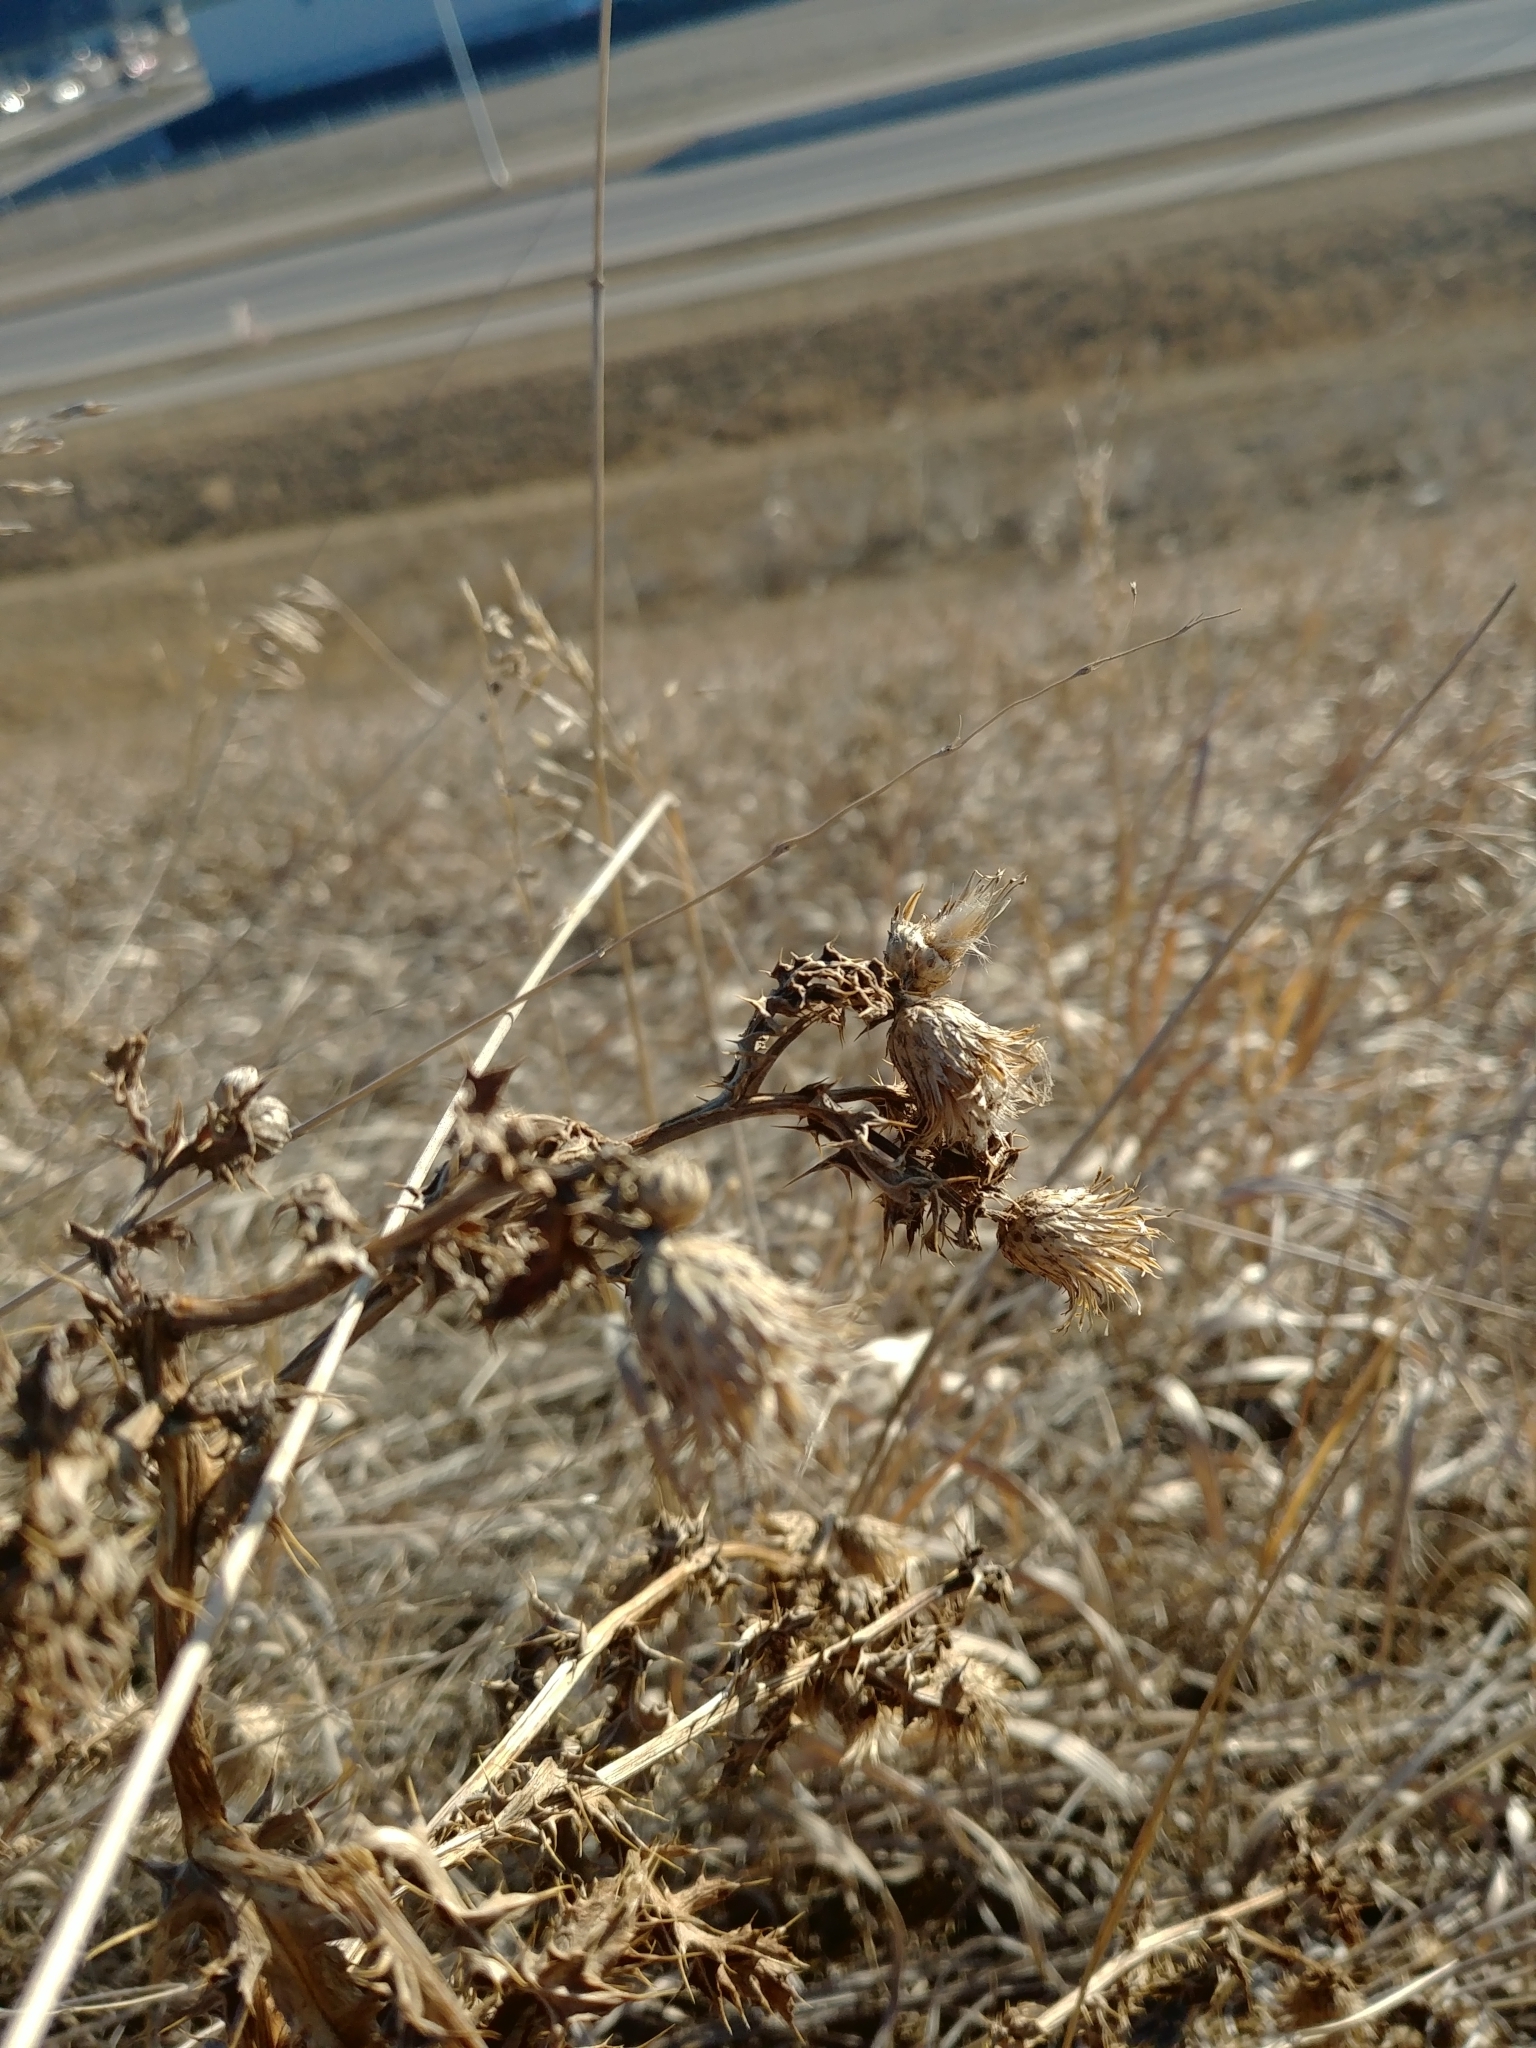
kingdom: Plantae
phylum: Tracheophyta
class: Magnoliopsida
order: Asterales
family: Asteraceae
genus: Cirsium
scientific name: Cirsium arvense
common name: Creeping thistle
